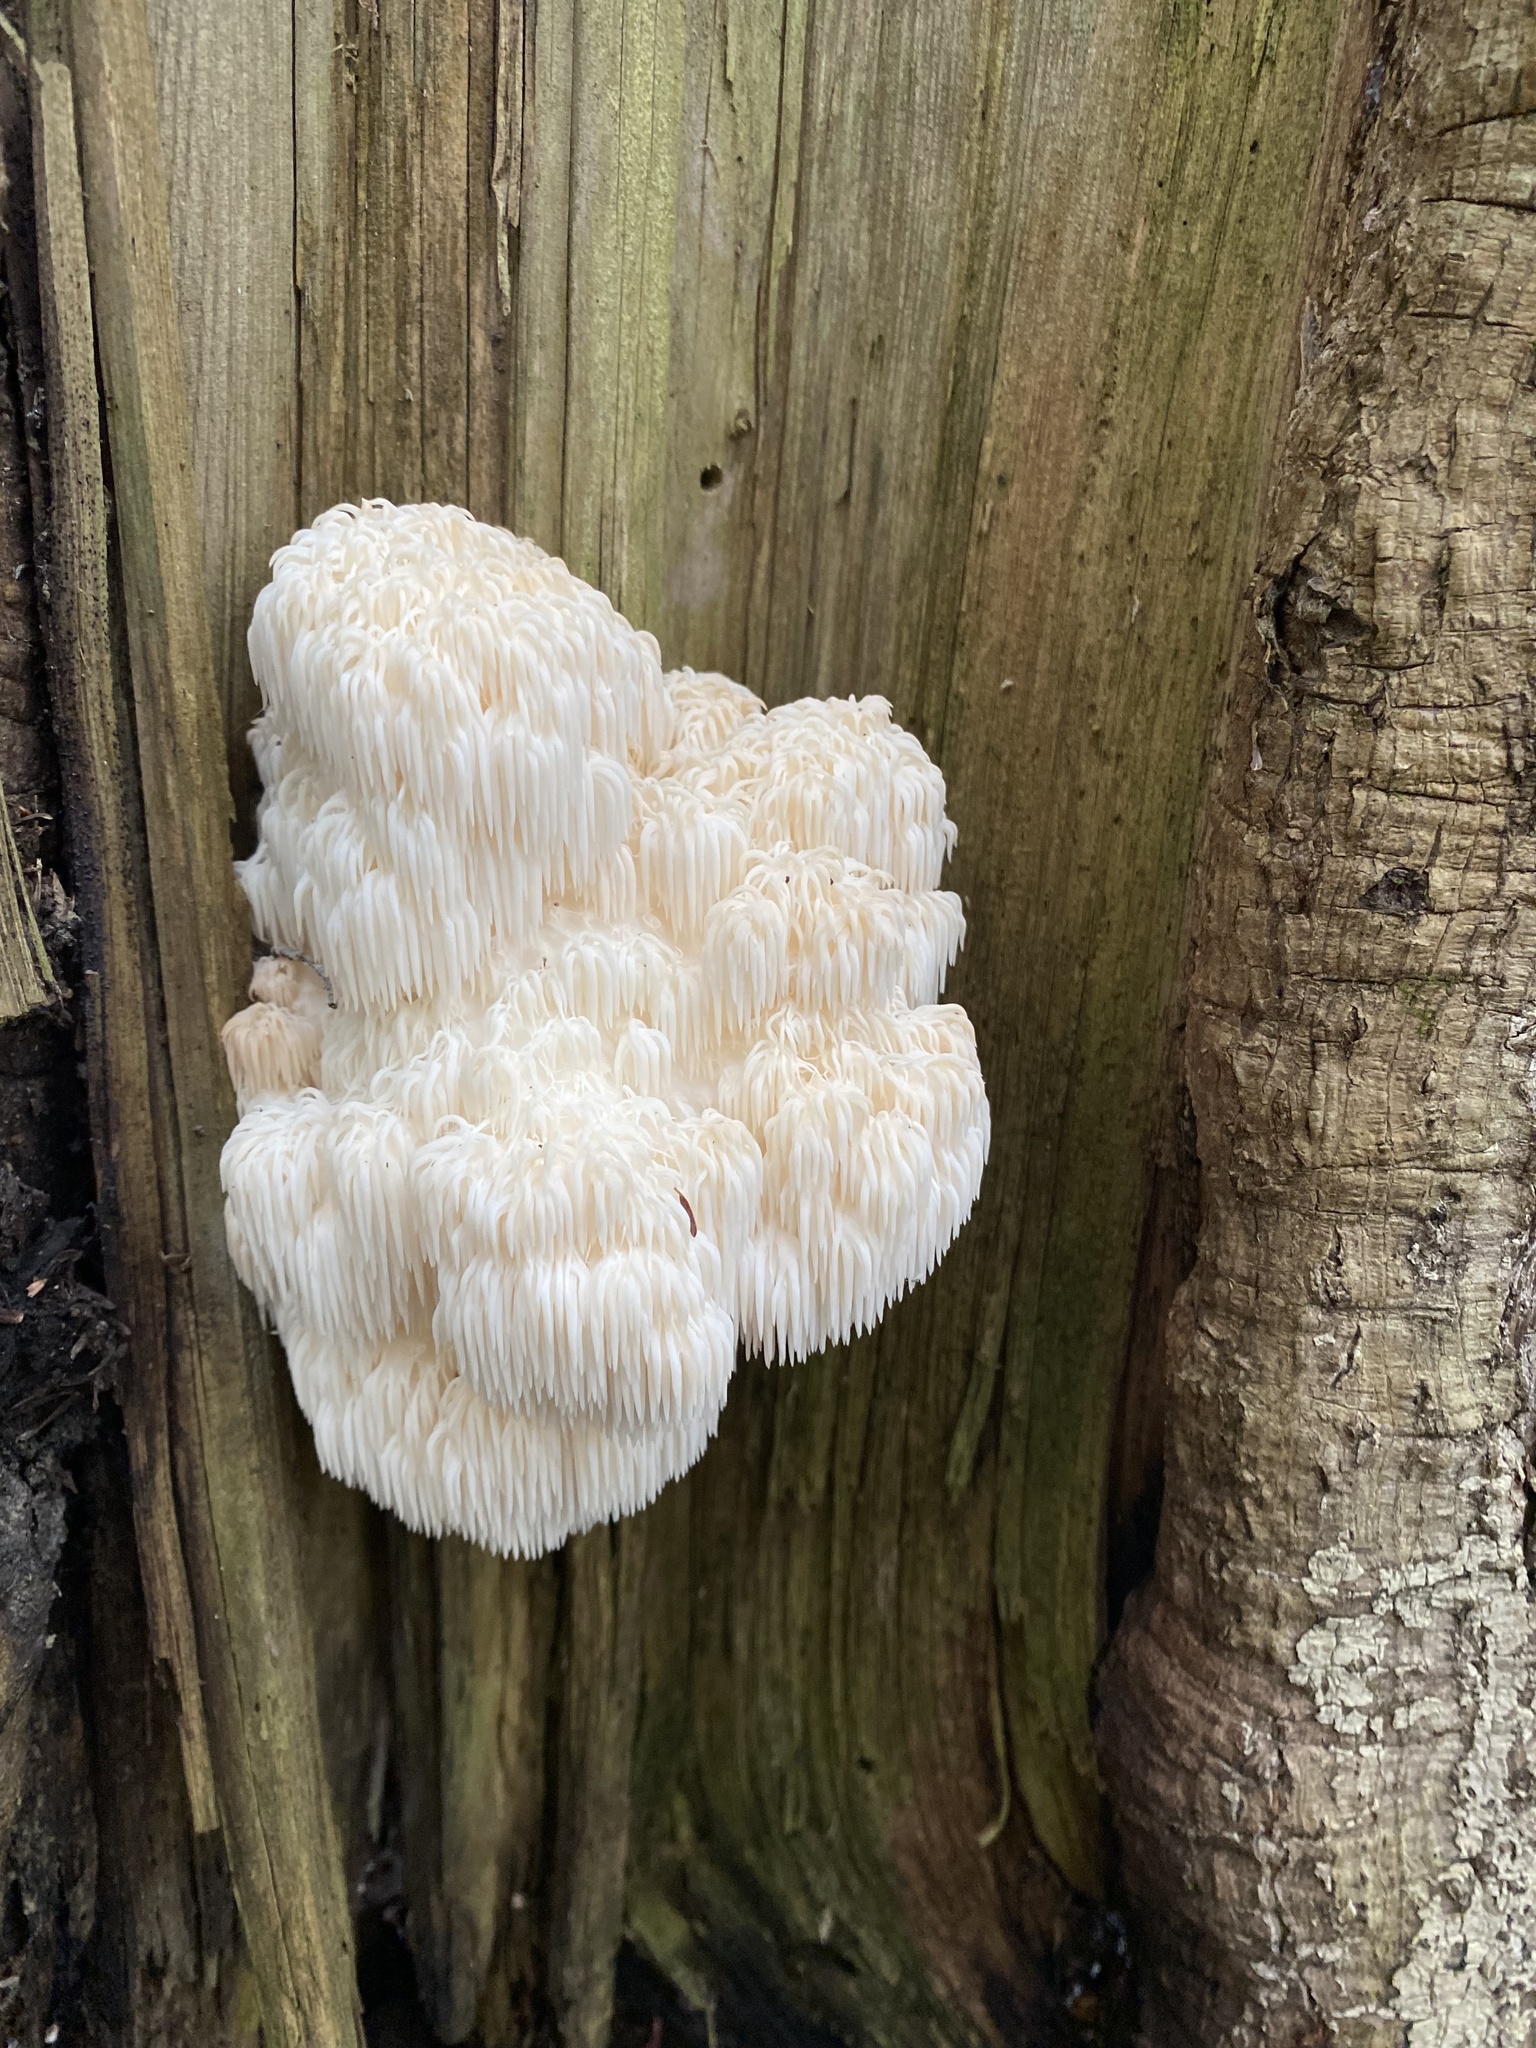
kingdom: Fungi
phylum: Basidiomycota
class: Agaricomycetes
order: Russulales
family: Hericiaceae
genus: Hericium
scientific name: Hericium americanum
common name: Bear's head tooth
